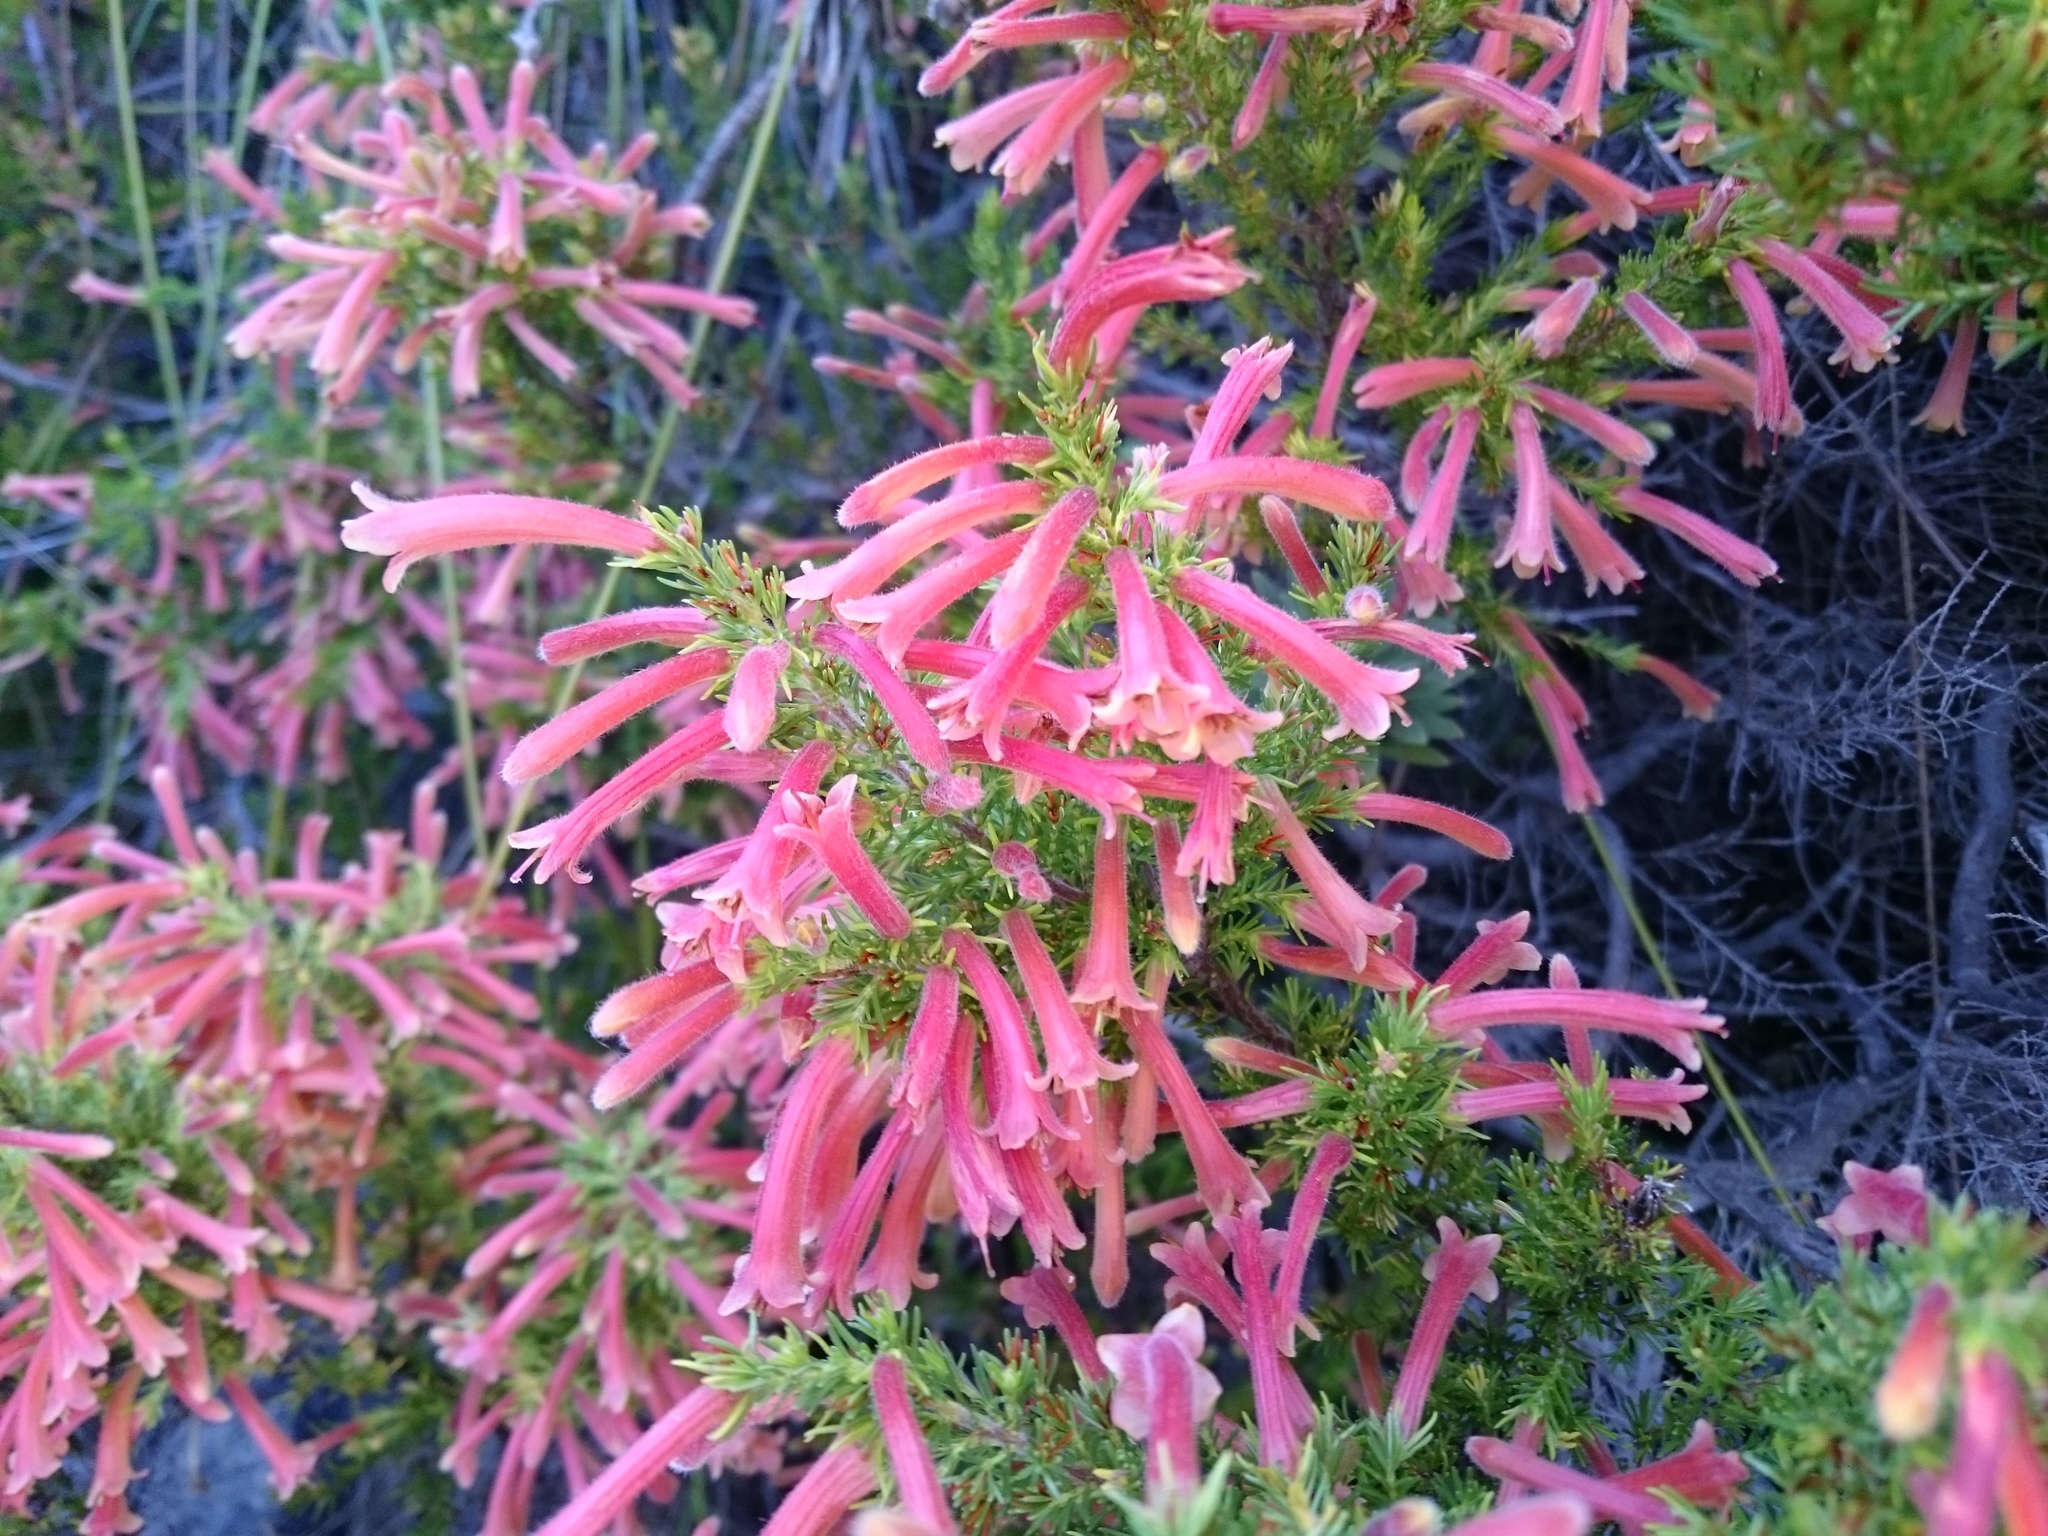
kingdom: Plantae
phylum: Tracheophyta
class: Magnoliopsida
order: Ericales
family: Ericaceae
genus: Erica
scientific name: Erica curviflora
